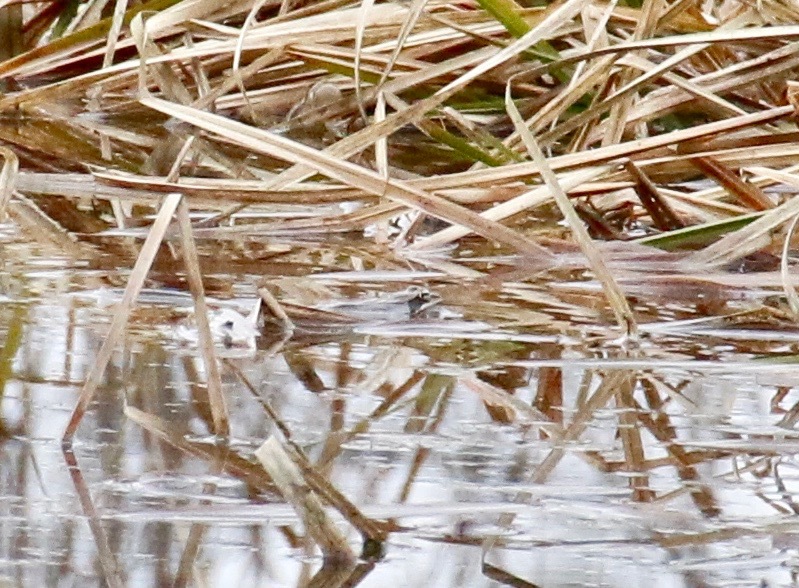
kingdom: Animalia
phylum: Chordata
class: Amphibia
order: Anura
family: Ranidae
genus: Lithobates
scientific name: Lithobates sylvaticus
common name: Wood frog
